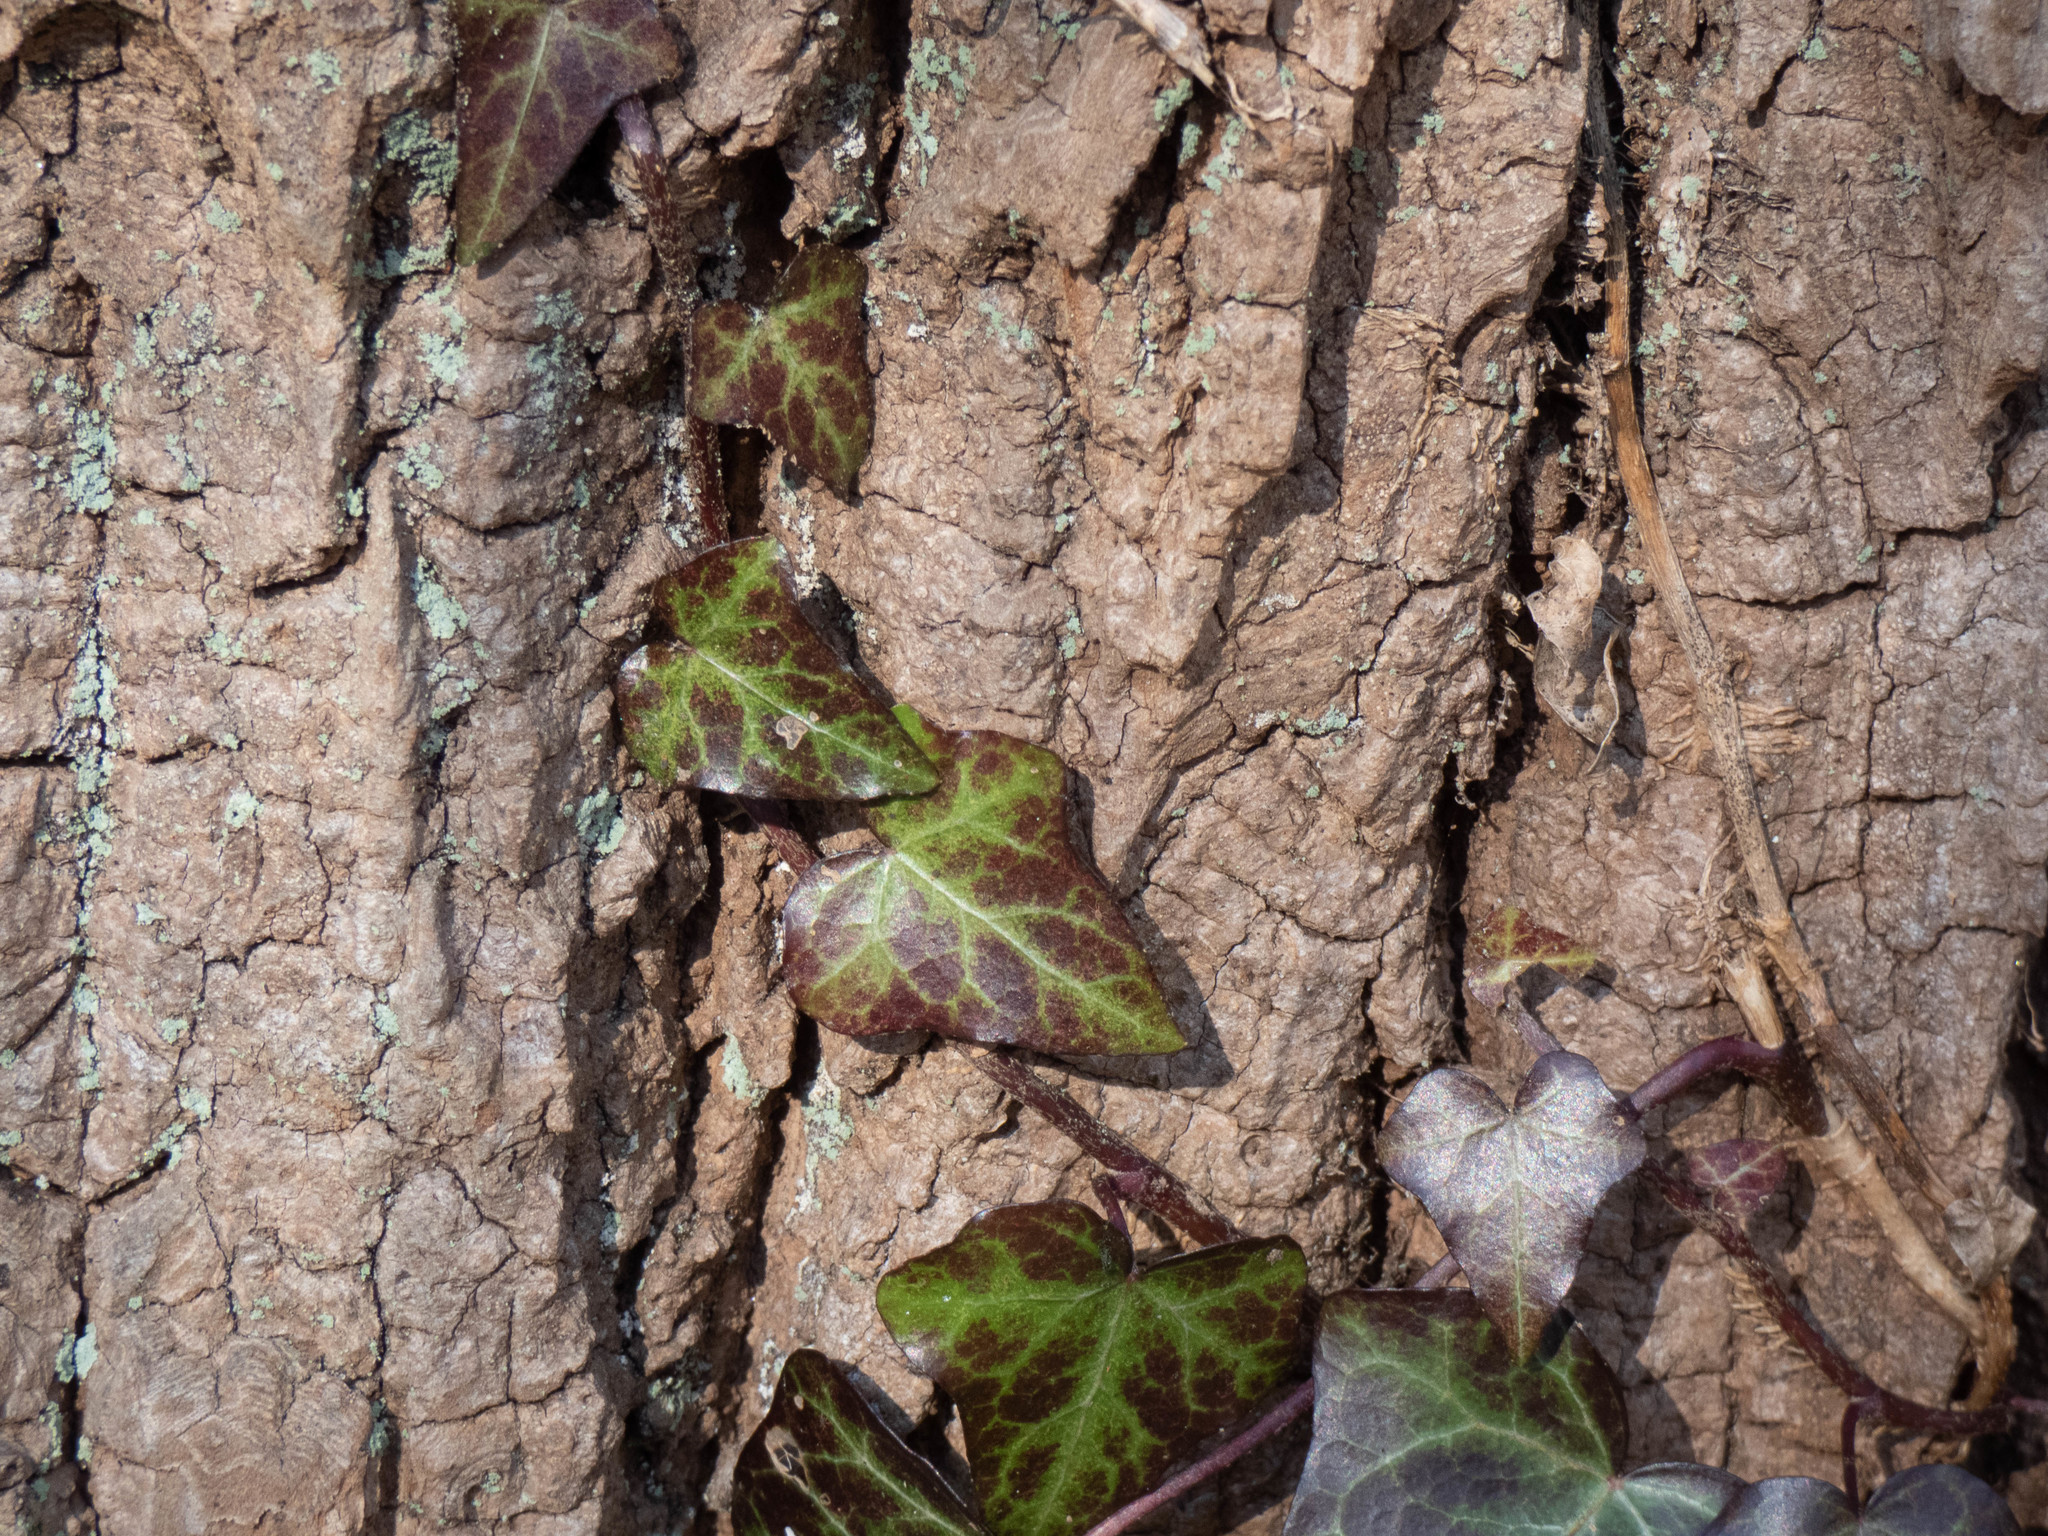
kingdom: Plantae
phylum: Tracheophyta
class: Magnoliopsida
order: Apiales
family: Araliaceae
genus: Hedera
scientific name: Hedera helix
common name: Ivy
